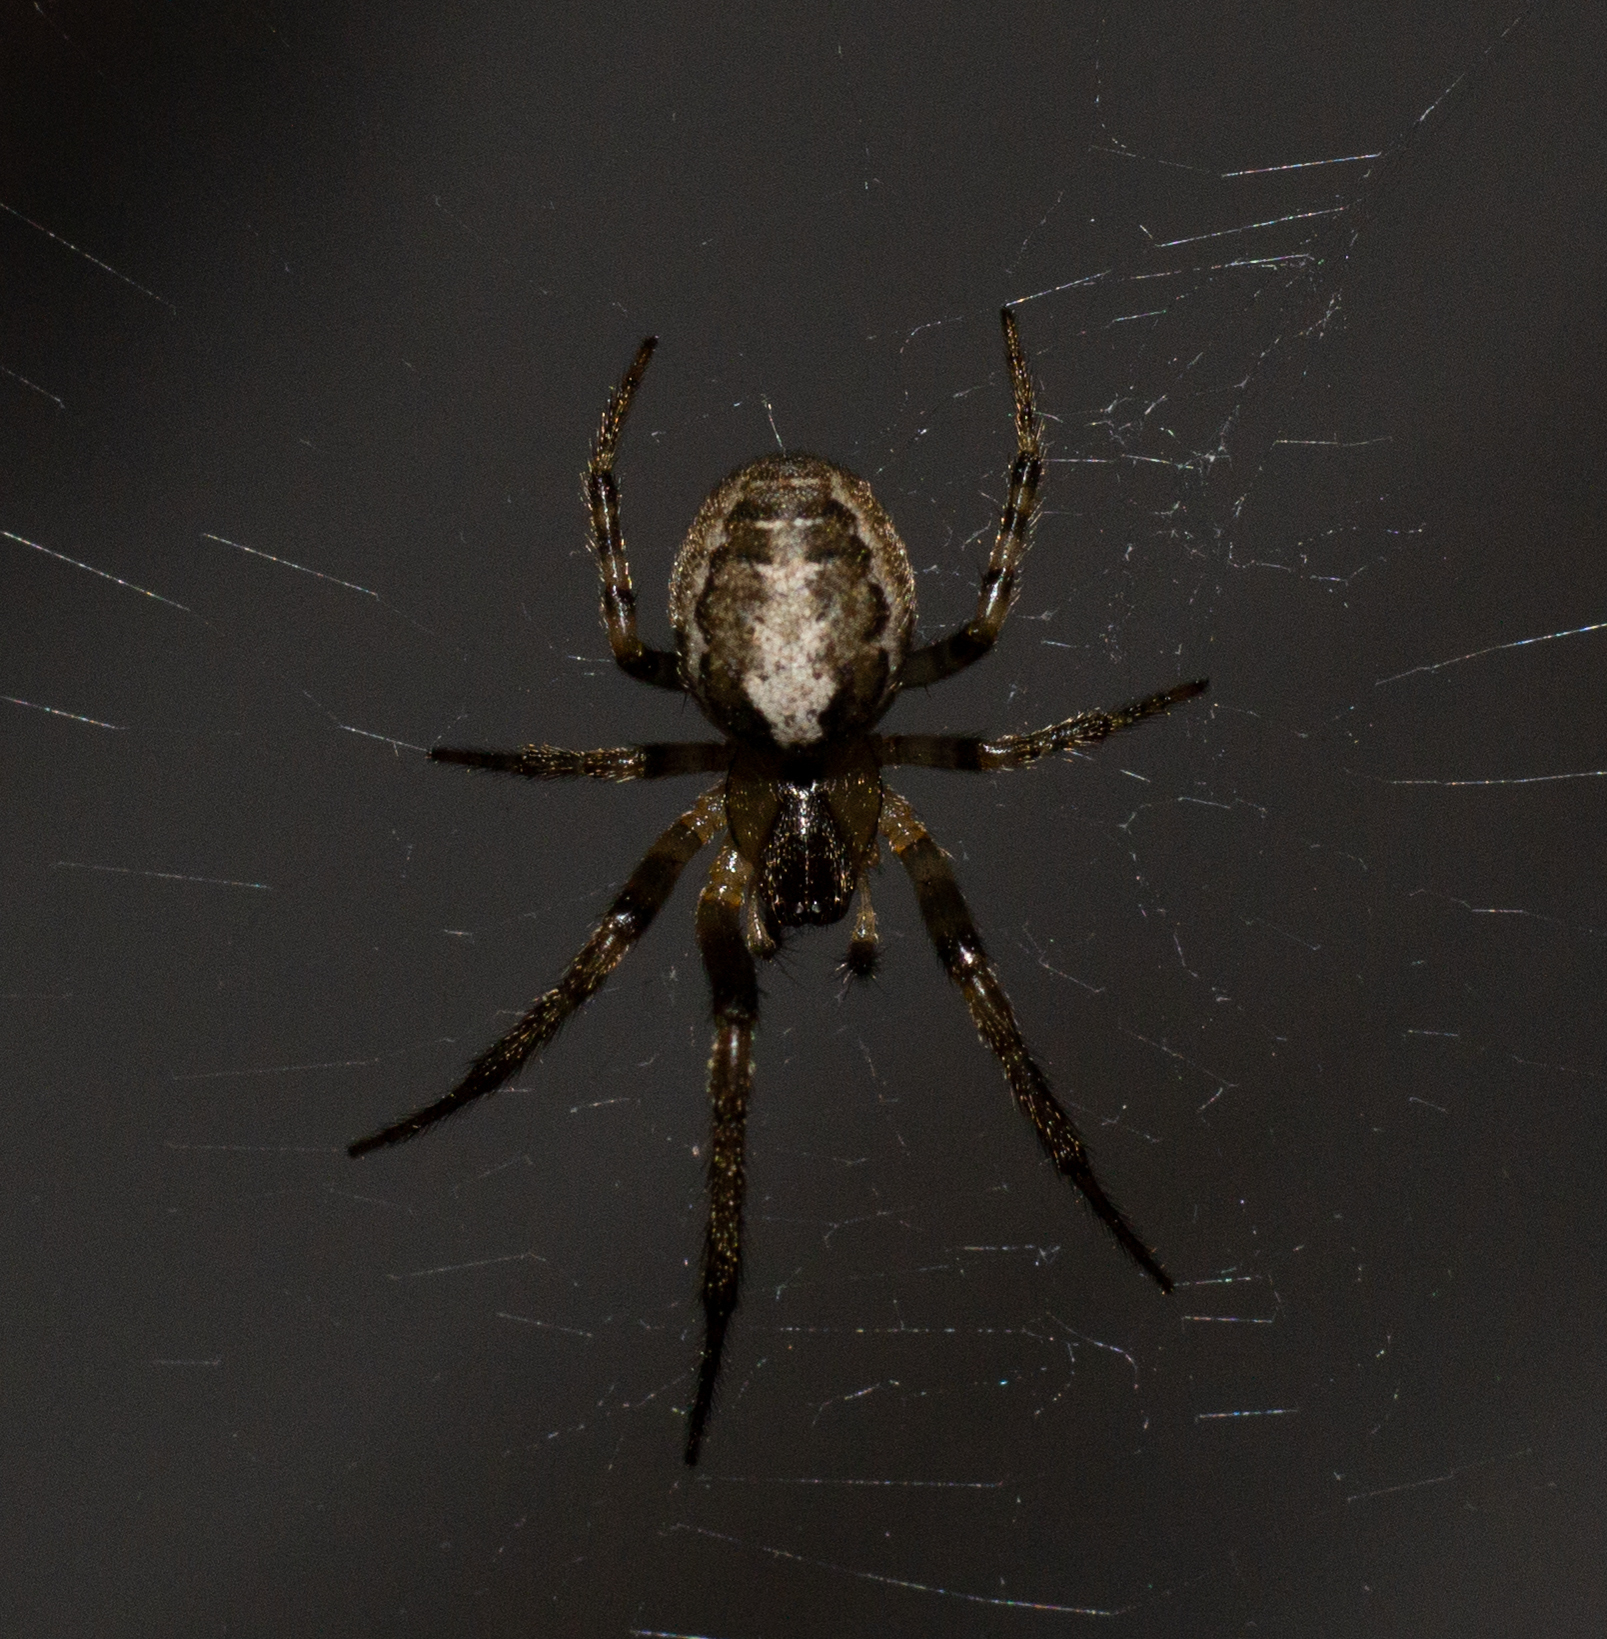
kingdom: Animalia
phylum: Arthropoda
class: Arachnida
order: Araneae
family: Araneidae
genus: Zygiella
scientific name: Zygiella x-notata
